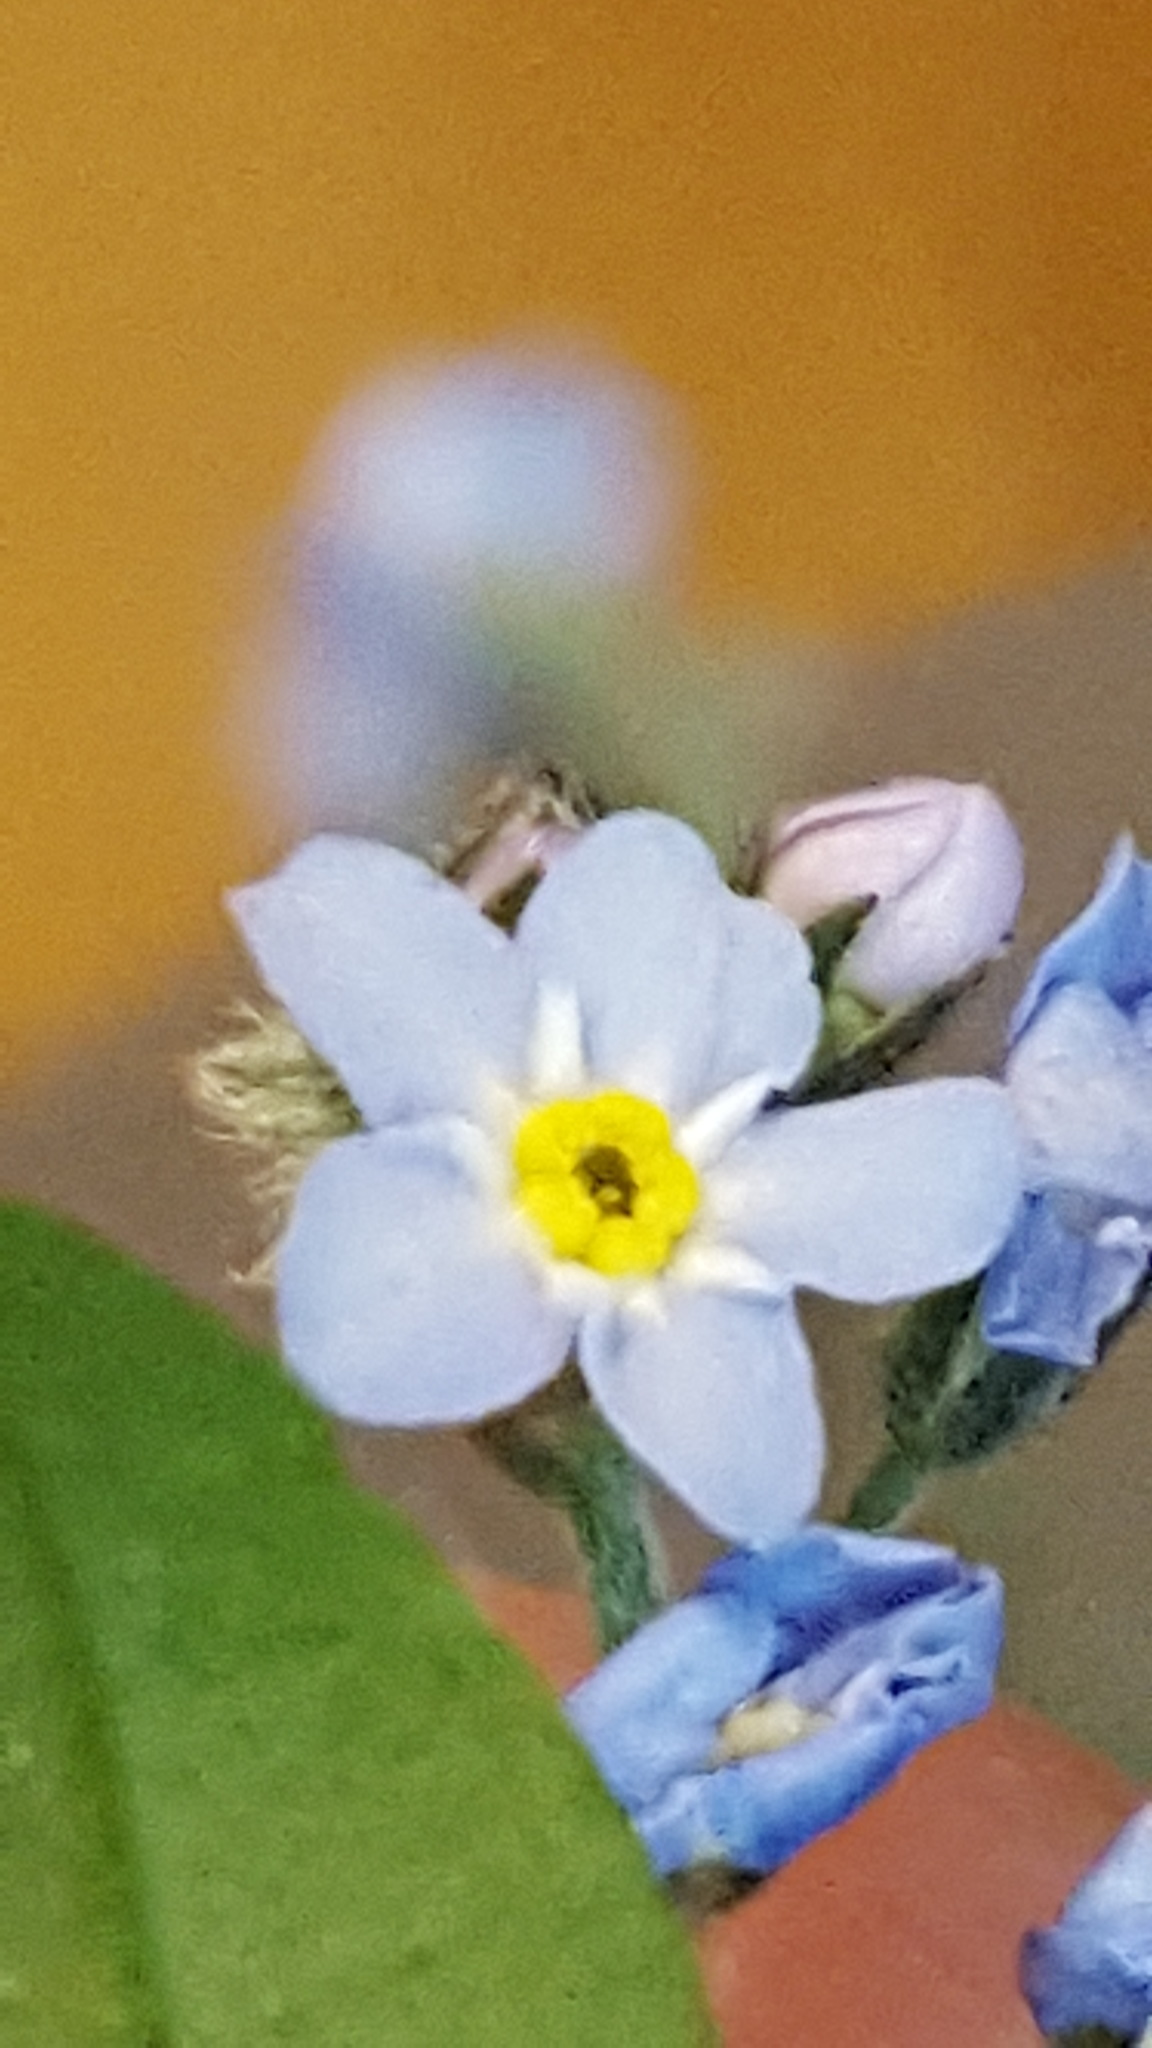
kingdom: Plantae
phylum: Tracheophyta
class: Magnoliopsida
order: Boraginales
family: Boraginaceae
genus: Myosotis
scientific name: Myosotis sylvatica
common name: Wood forget-me-not
